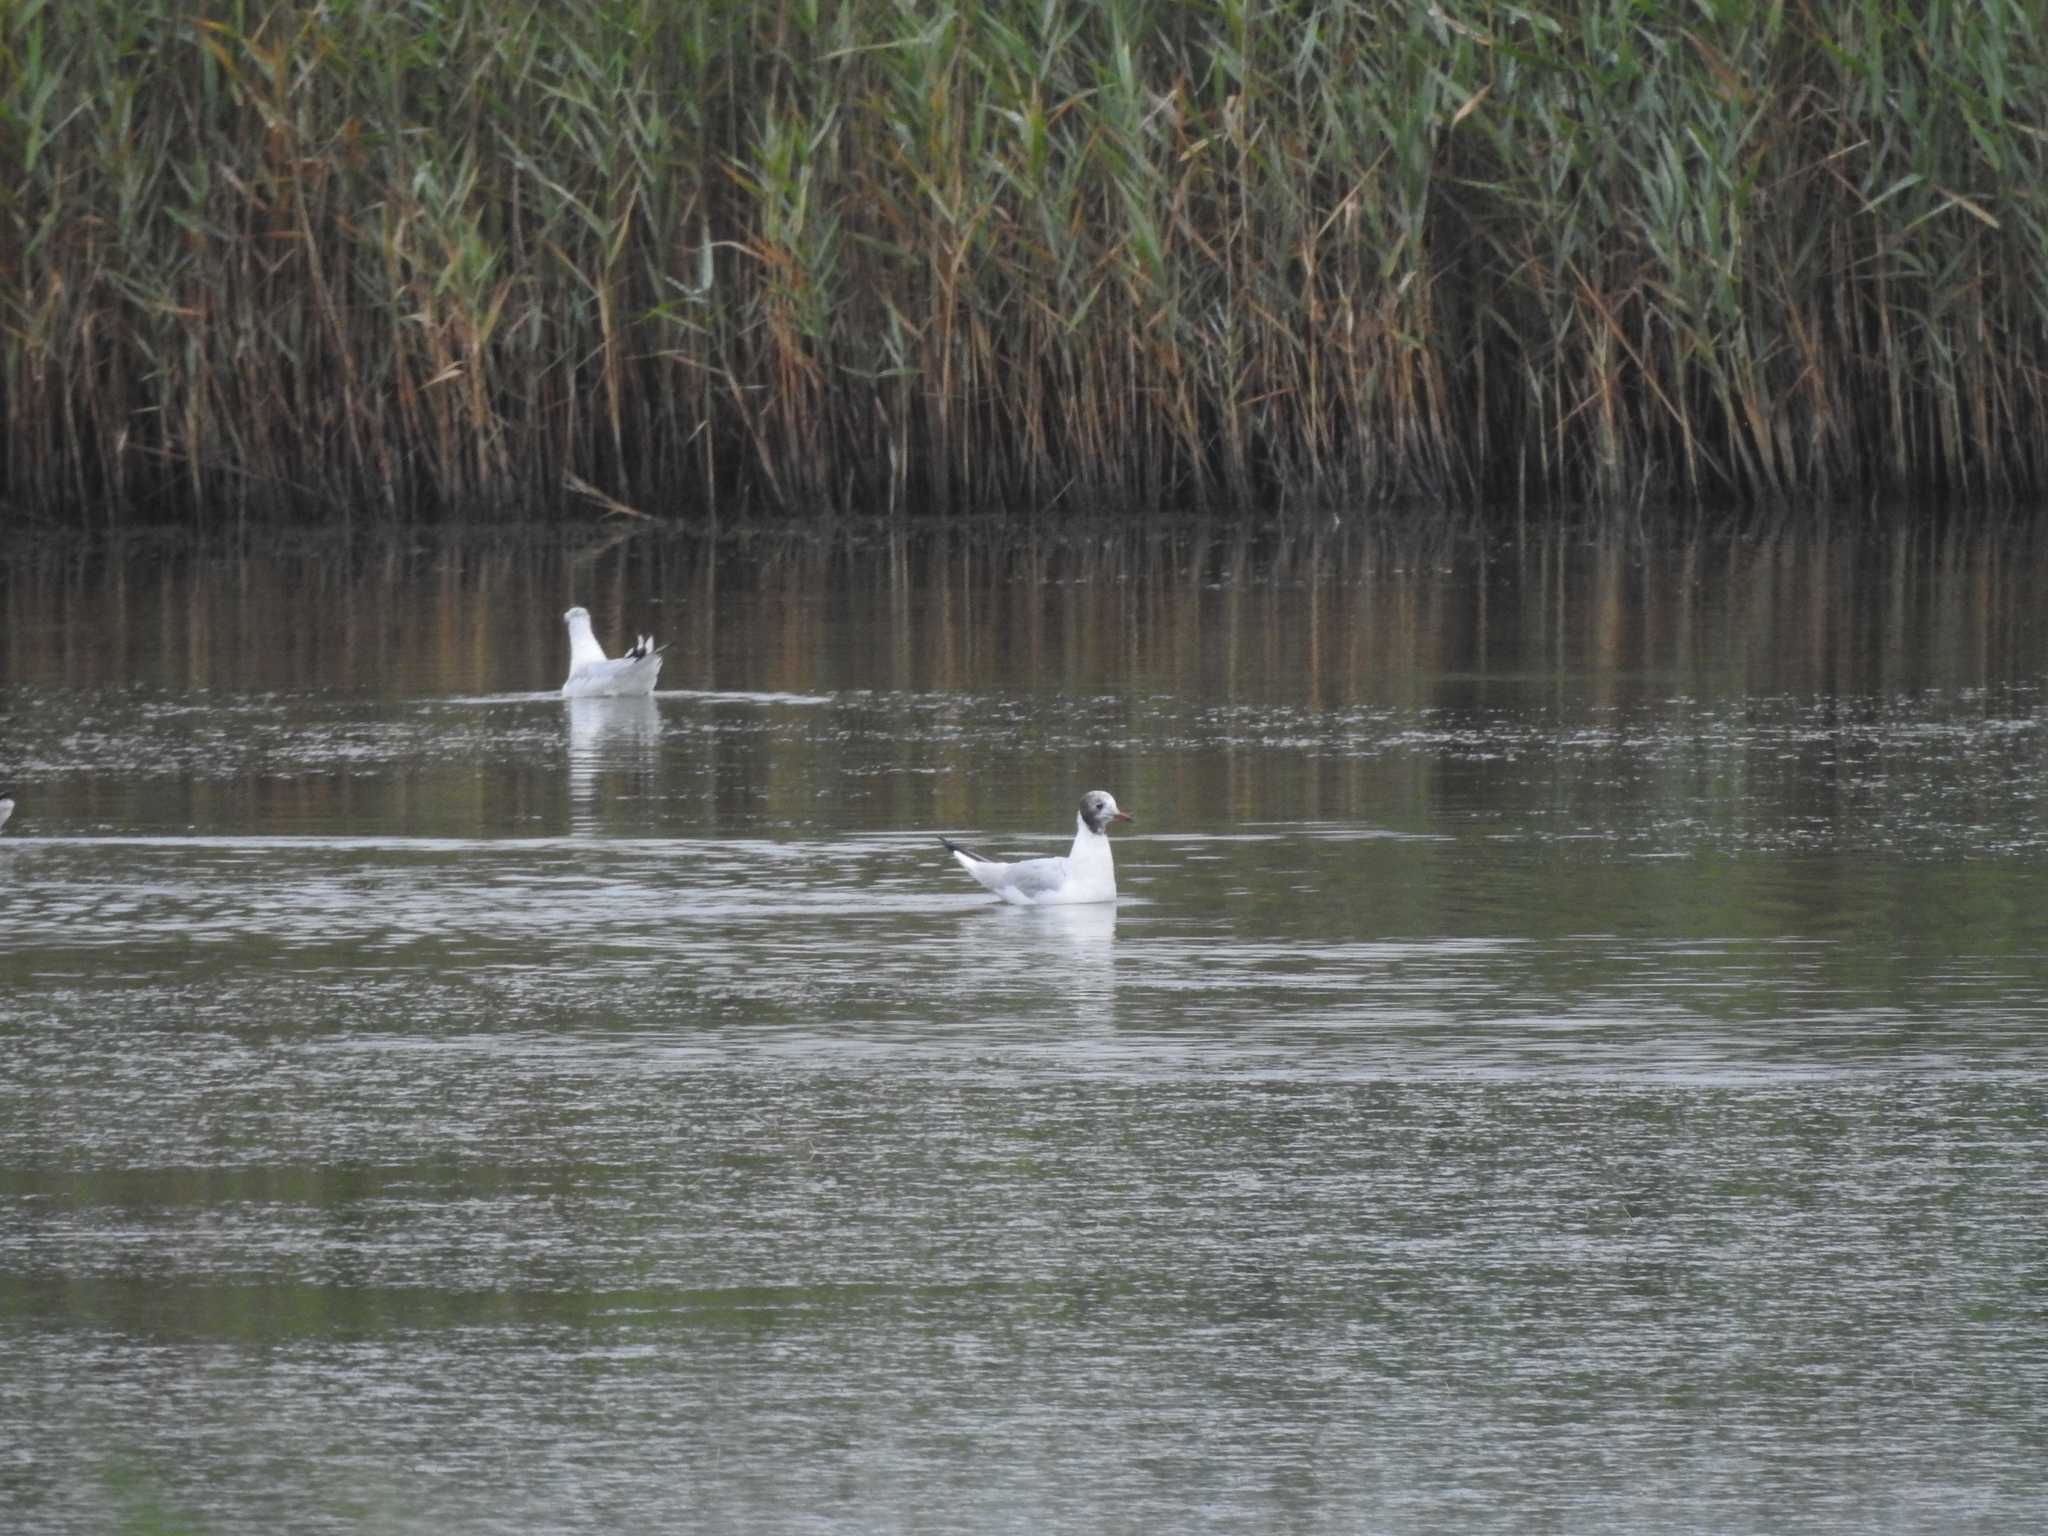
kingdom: Animalia
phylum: Chordata
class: Aves
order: Charadriiformes
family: Laridae
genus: Chroicocephalus
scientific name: Chroicocephalus ridibundus
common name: Black-headed gull
